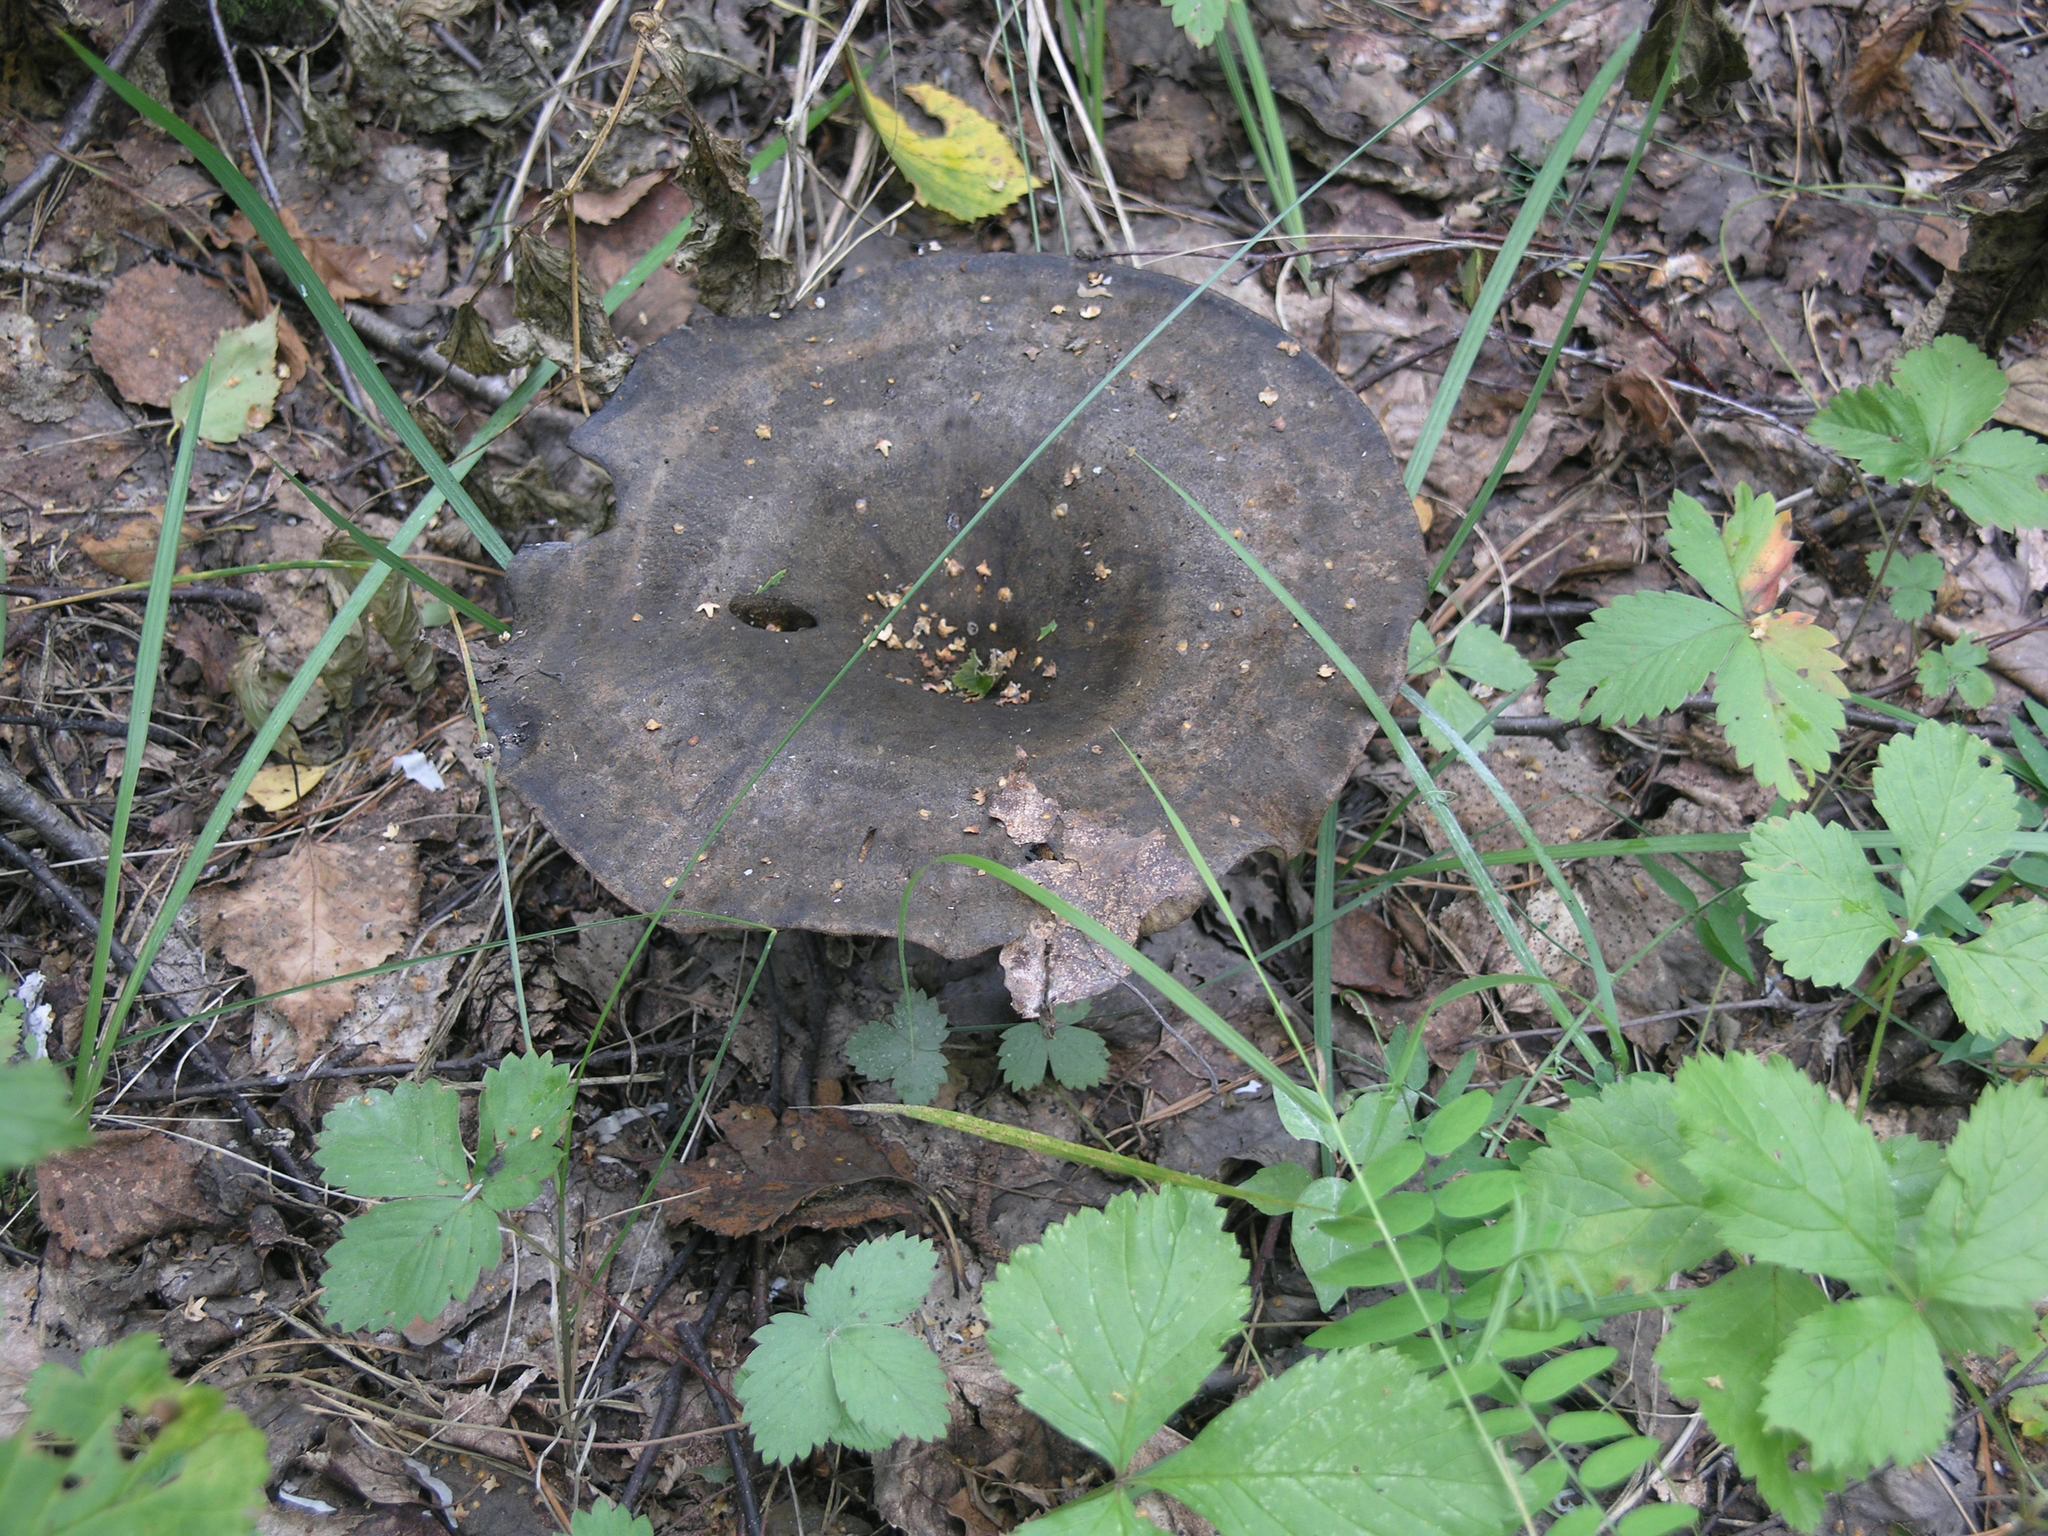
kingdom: Fungi
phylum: Basidiomycota
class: Agaricomycetes
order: Russulales
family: Russulaceae
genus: Lactarius
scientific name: Lactarius turpis
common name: Ugly milk-cap
